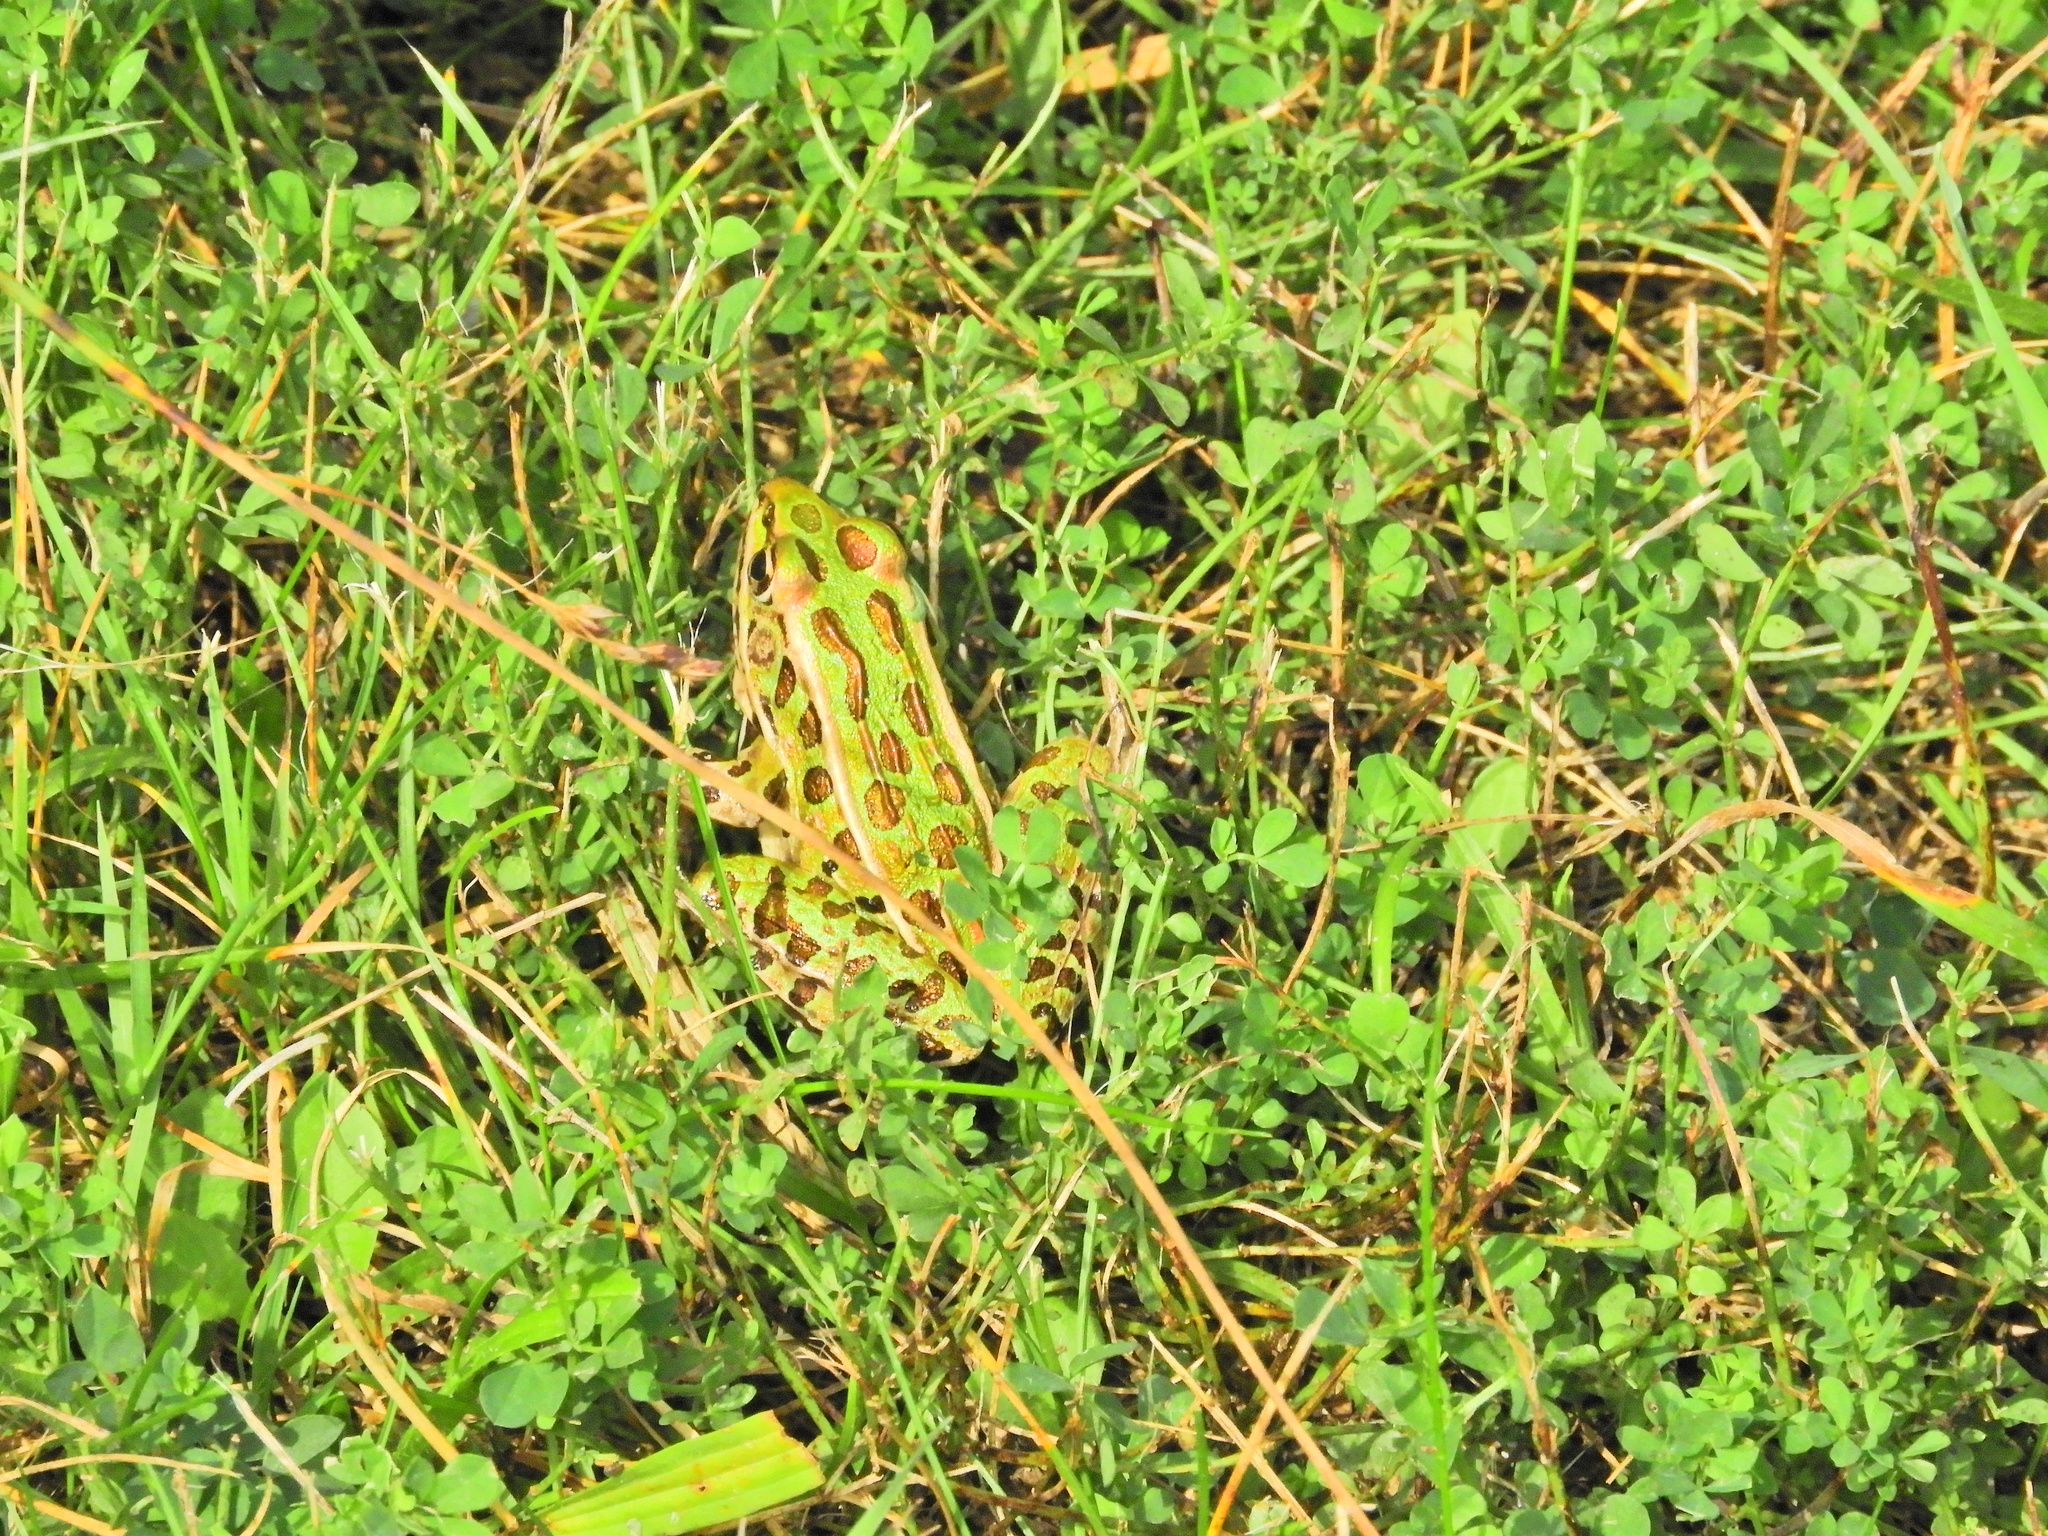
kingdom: Animalia
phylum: Chordata
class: Amphibia
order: Anura
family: Ranidae
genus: Lithobates
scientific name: Lithobates pipiens
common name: Northern leopard frog
